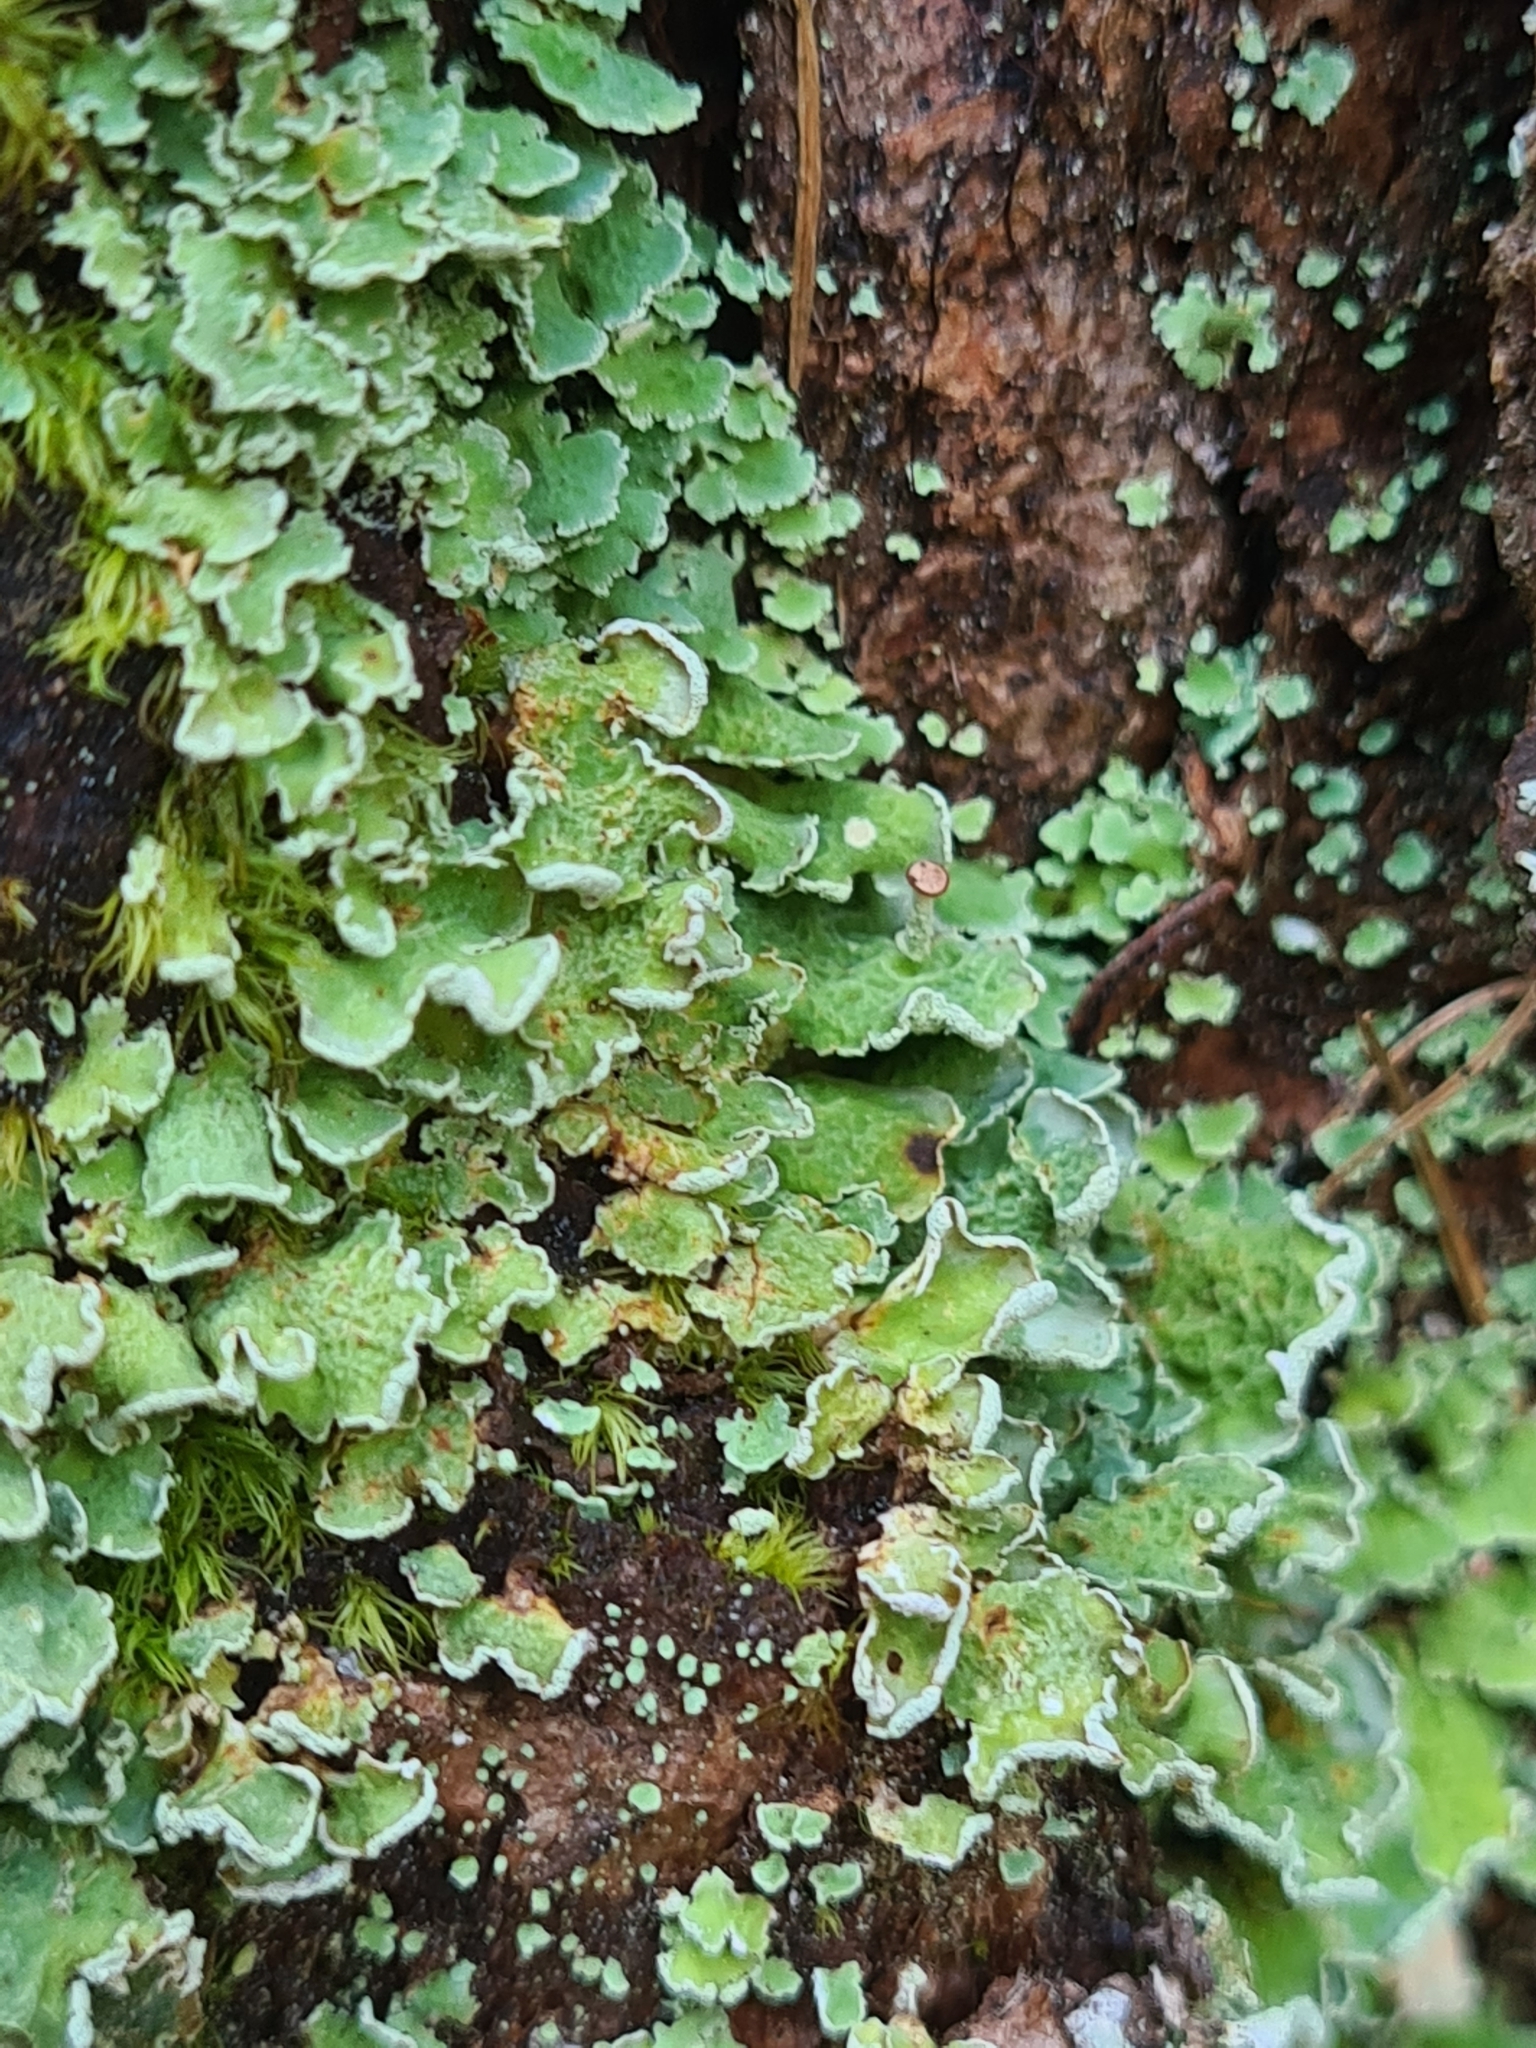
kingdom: Fungi
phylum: Ascomycota
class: Lecanoromycetes
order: Lecanorales
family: Cladoniaceae
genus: Cladonia
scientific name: Cladonia digitata
